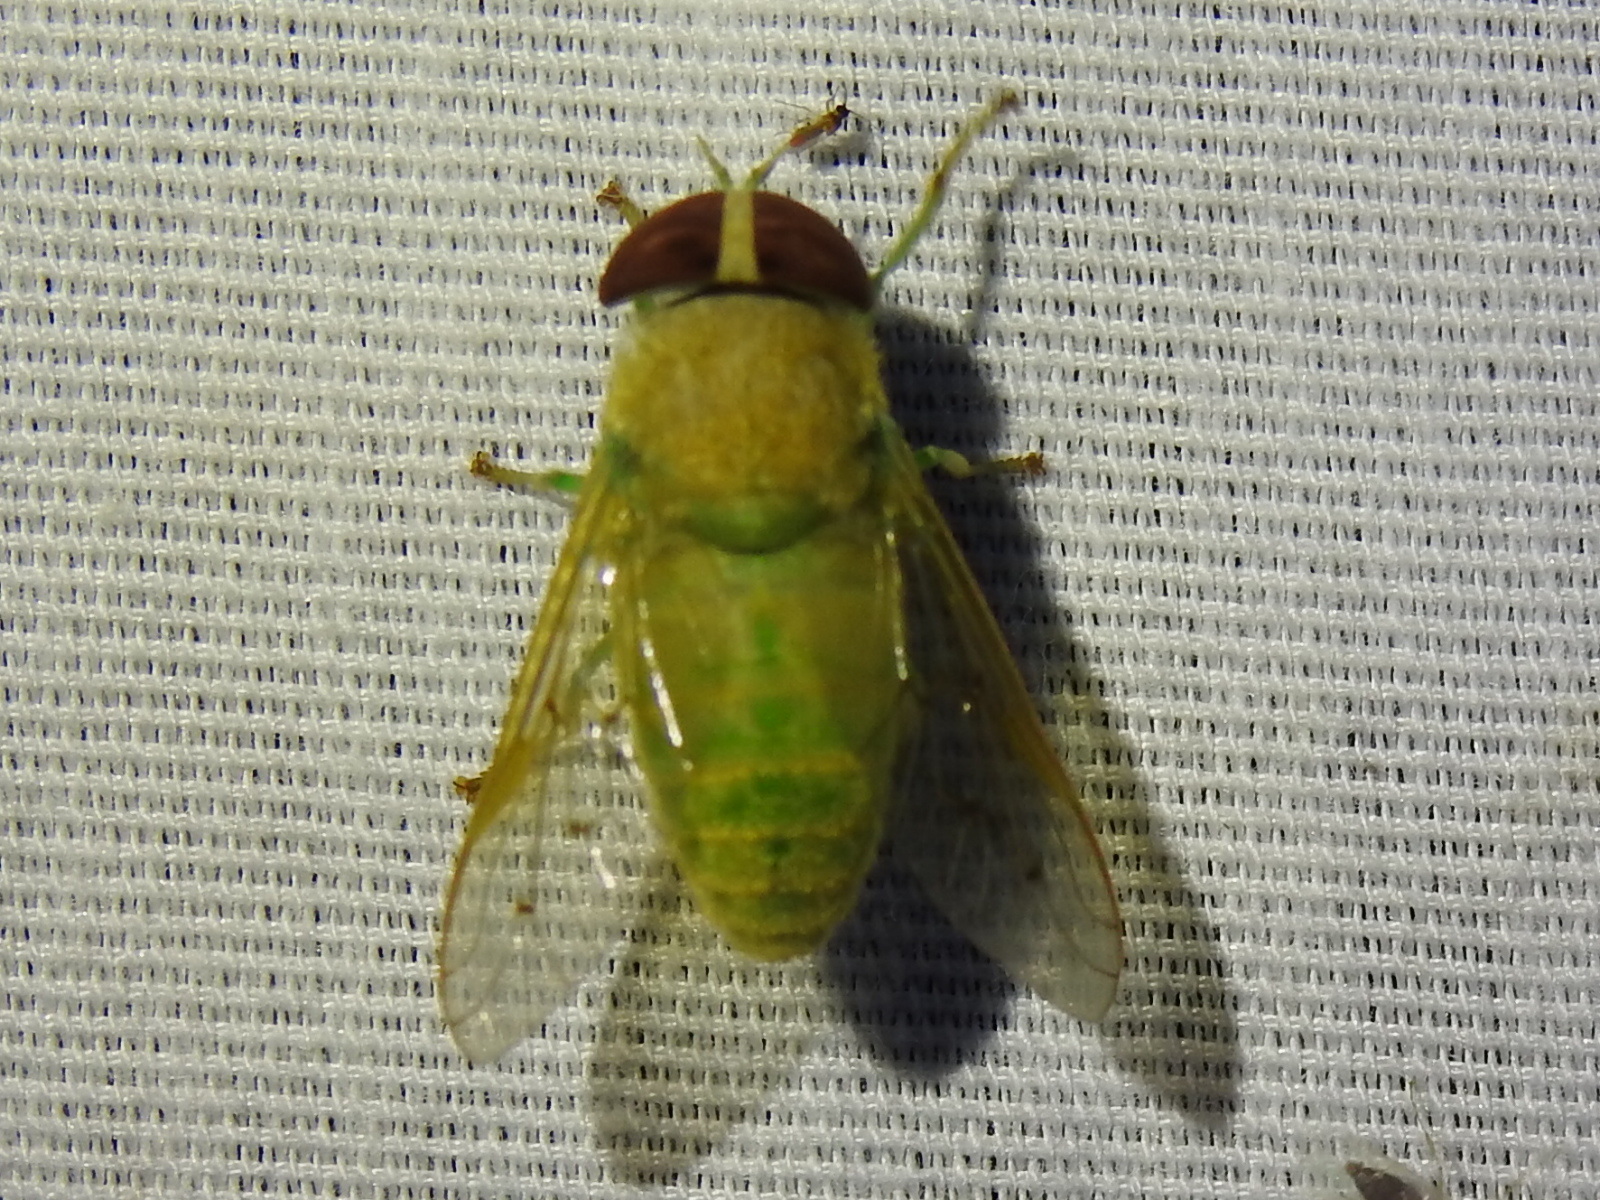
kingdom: Animalia
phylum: Arthropoda
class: Insecta
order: Diptera
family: Tabanidae
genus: Chlorotabanus
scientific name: Chlorotabanus crepuscularis
